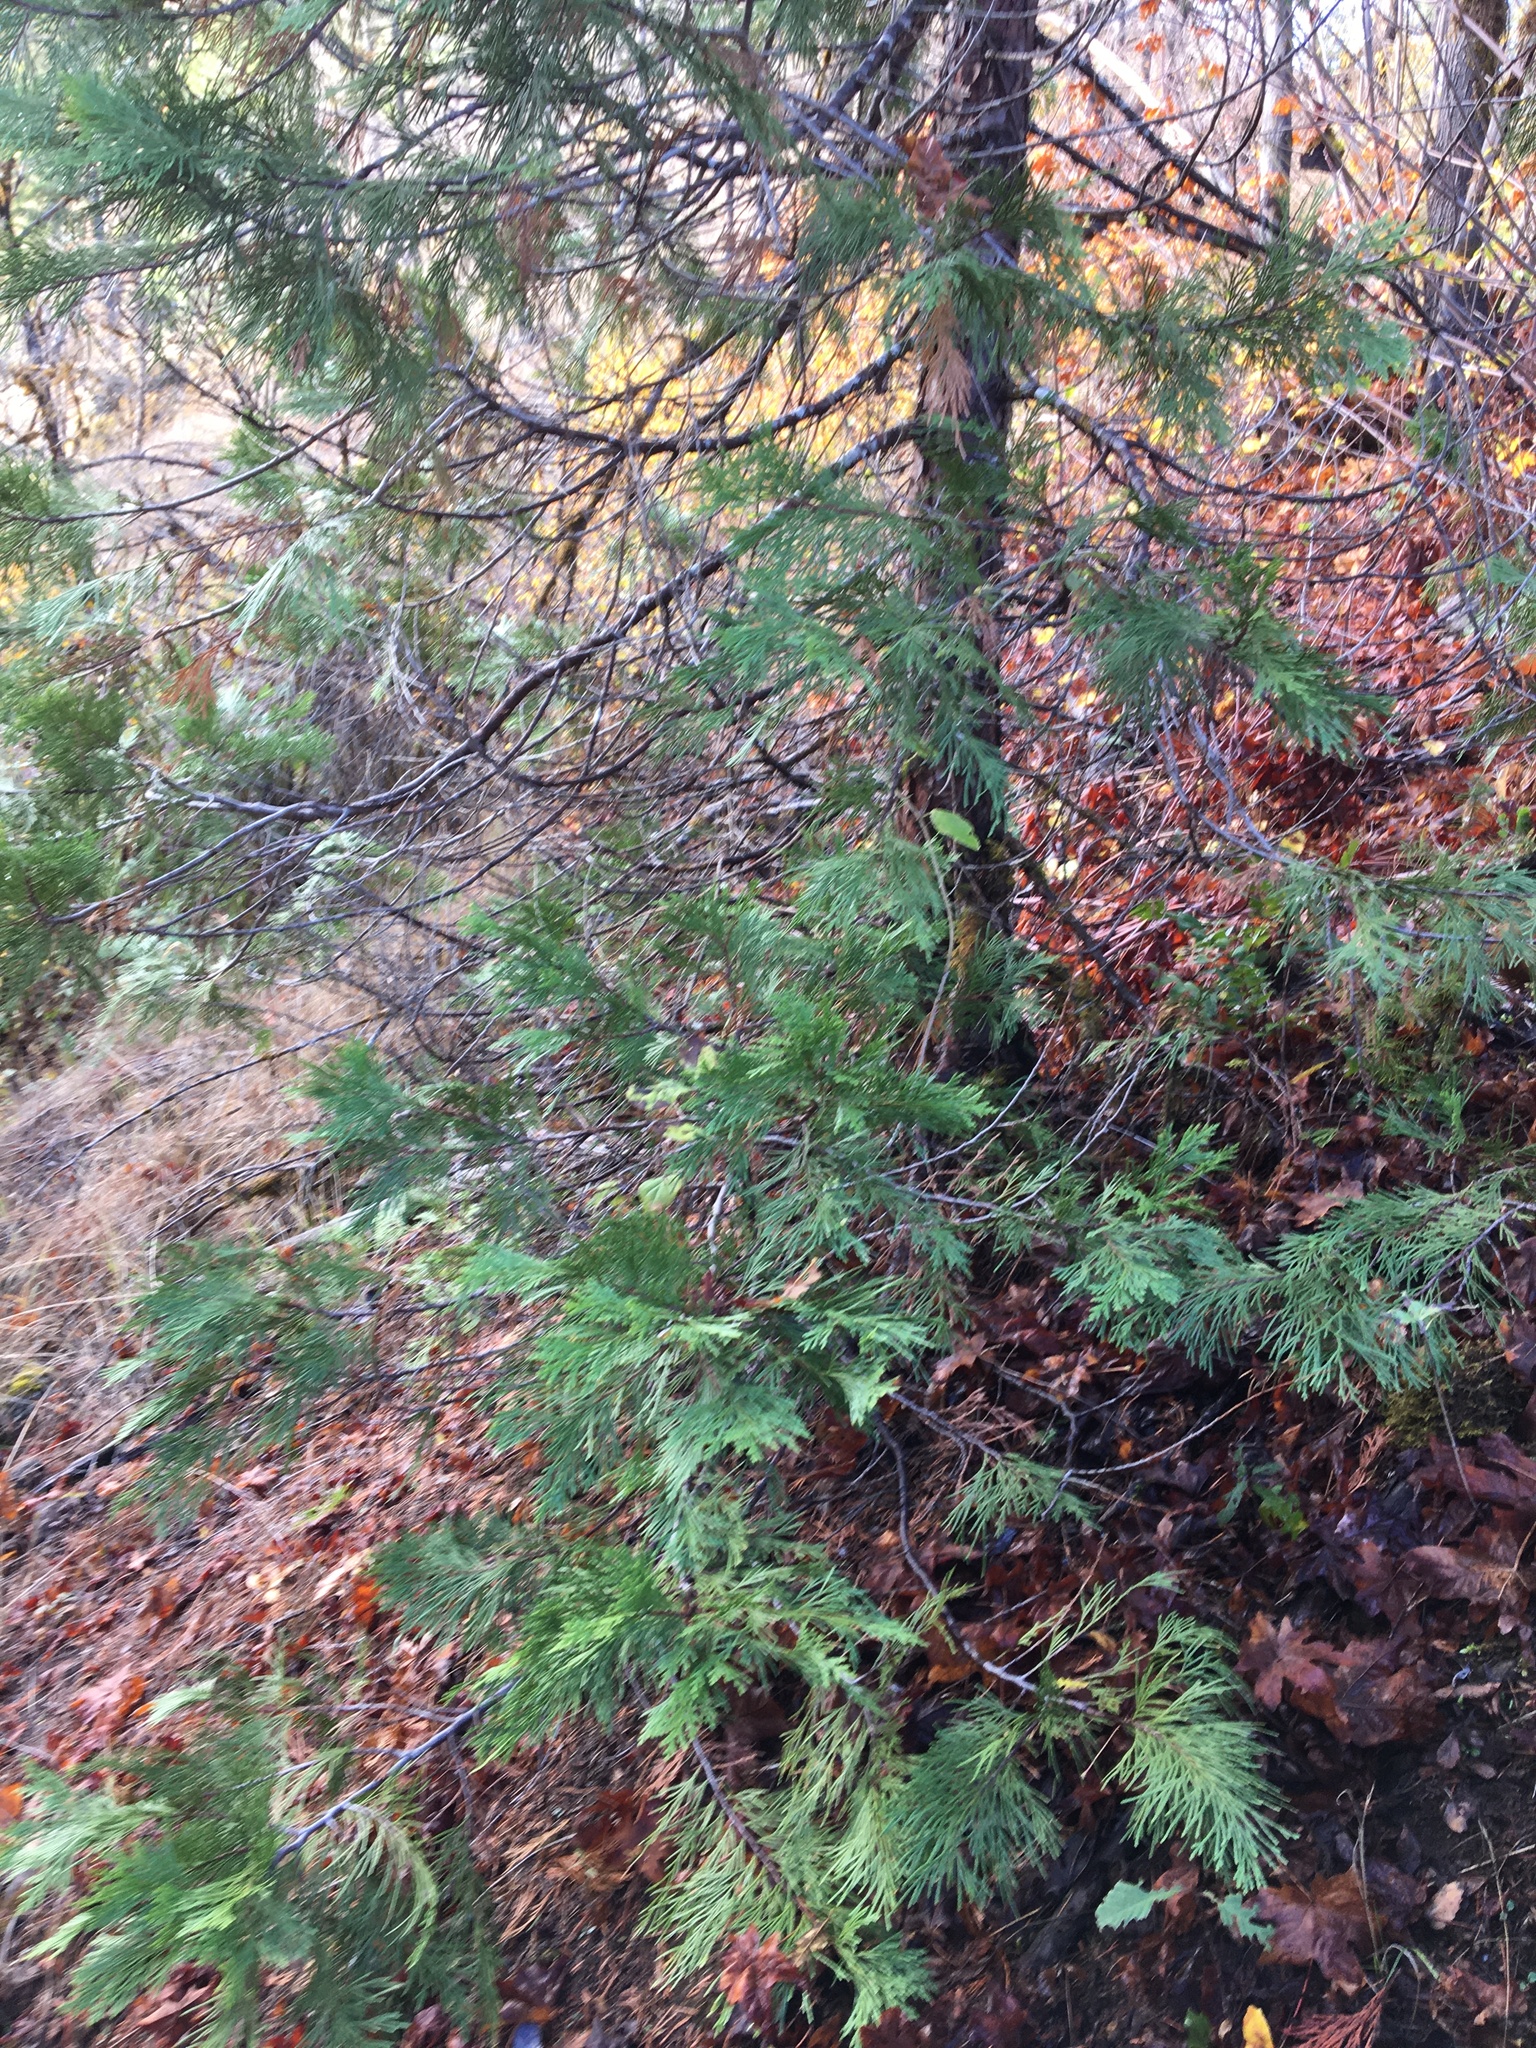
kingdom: Plantae
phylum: Tracheophyta
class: Pinopsida
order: Pinales
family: Cupressaceae
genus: Calocedrus
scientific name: Calocedrus decurrens
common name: Californian incense-cedar
